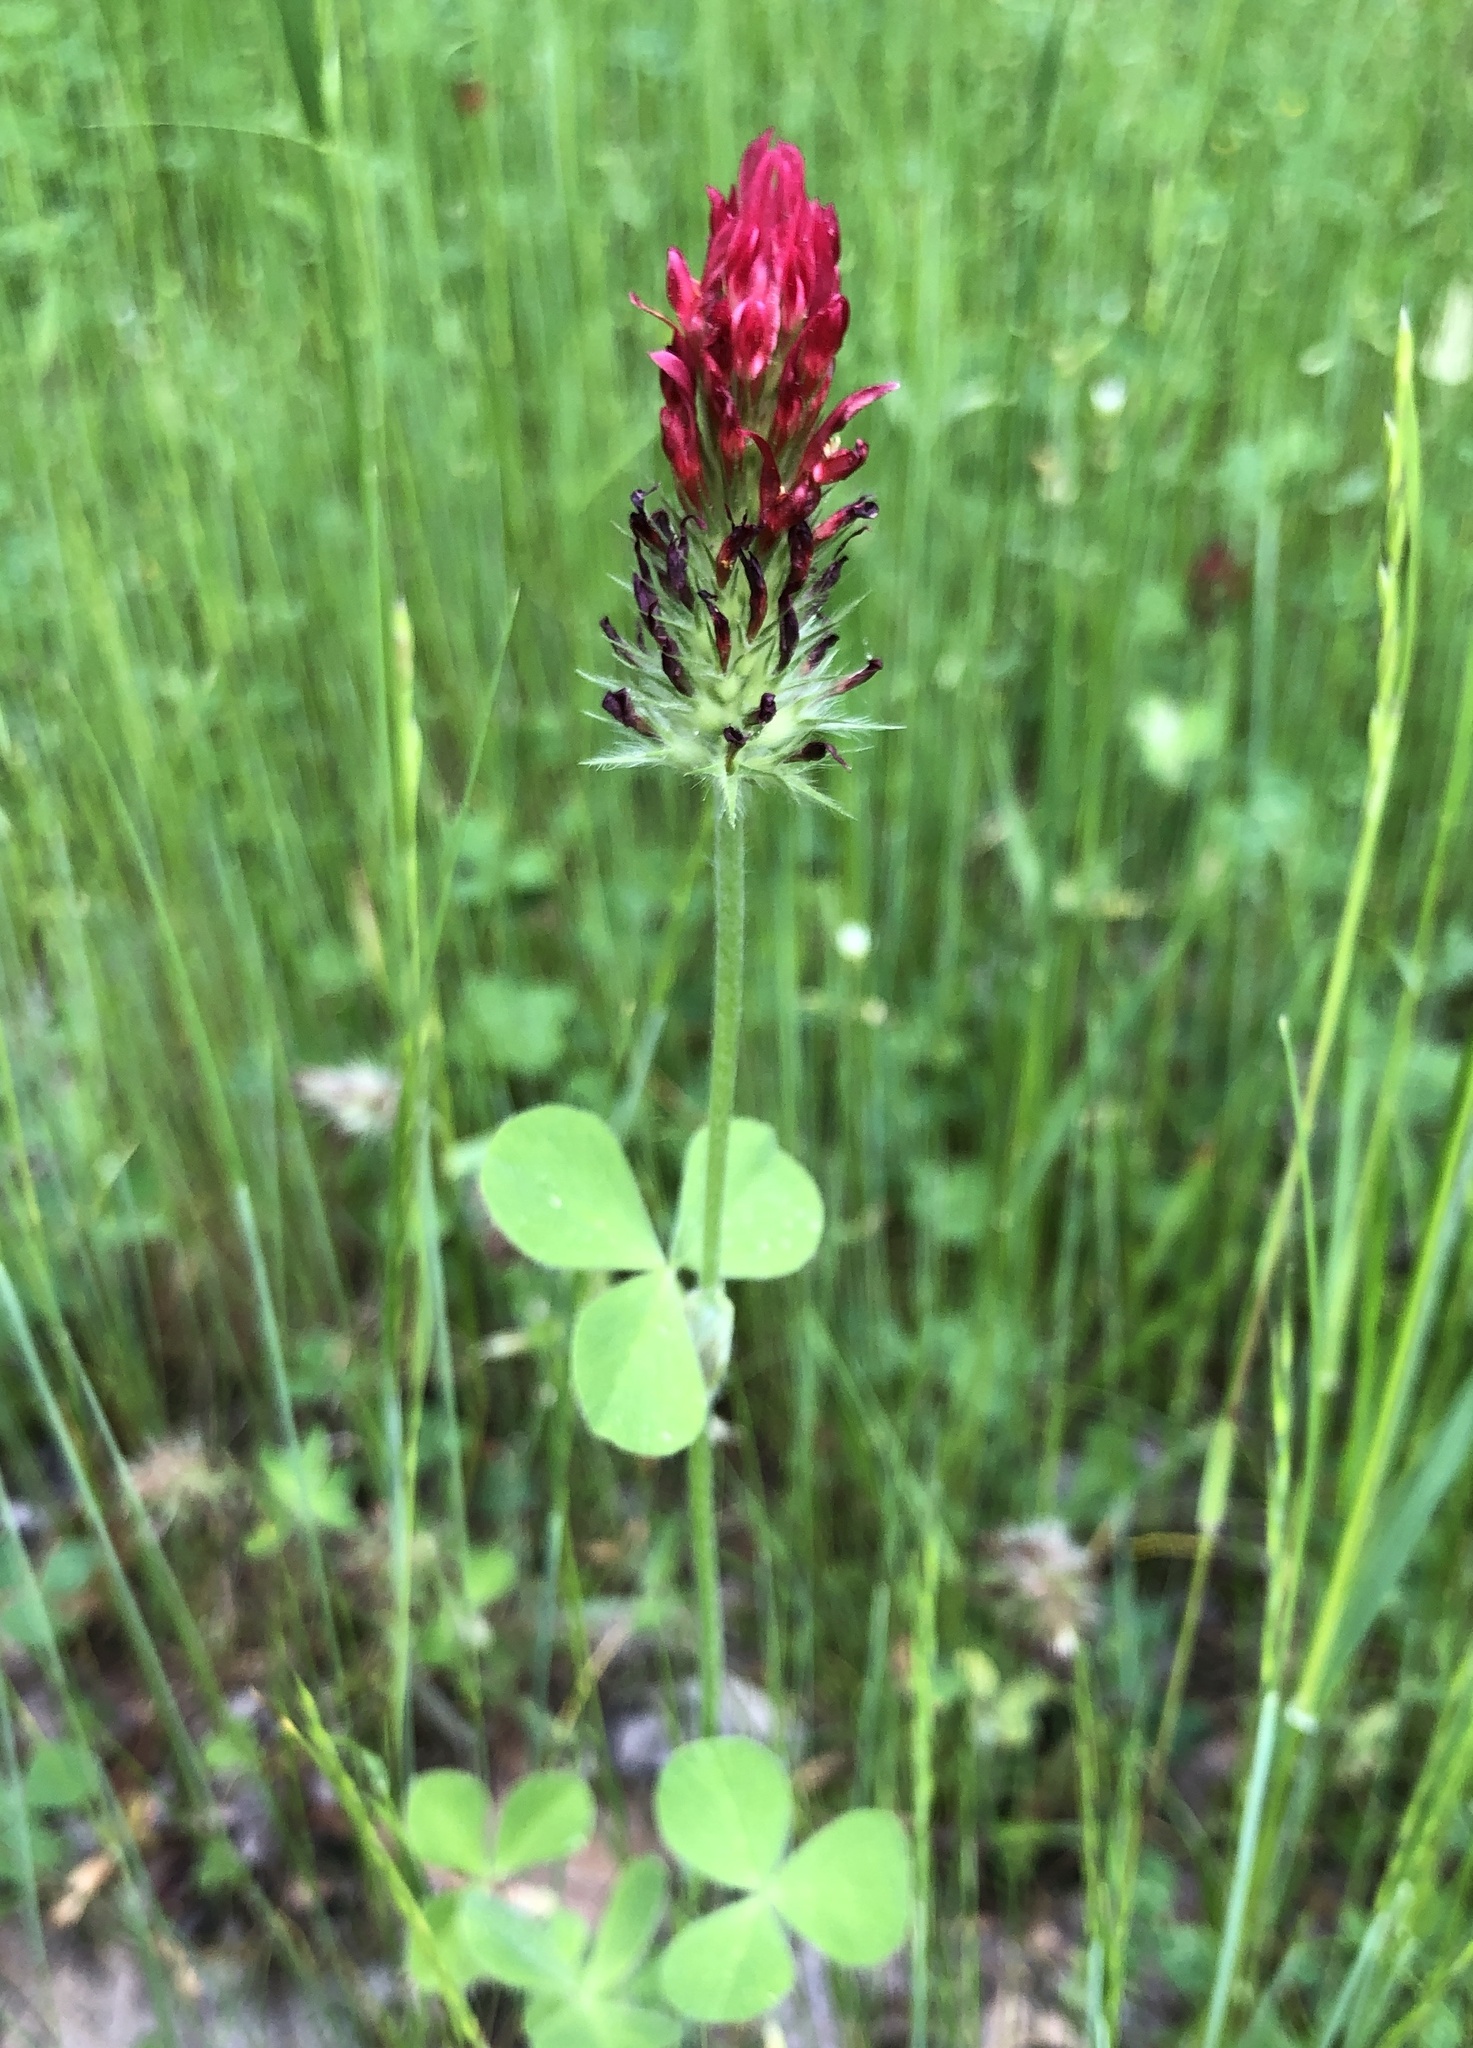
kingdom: Plantae
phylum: Tracheophyta
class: Magnoliopsida
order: Fabales
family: Fabaceae
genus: Trifolium
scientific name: Trifolium incarnatum
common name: Crimson clover
